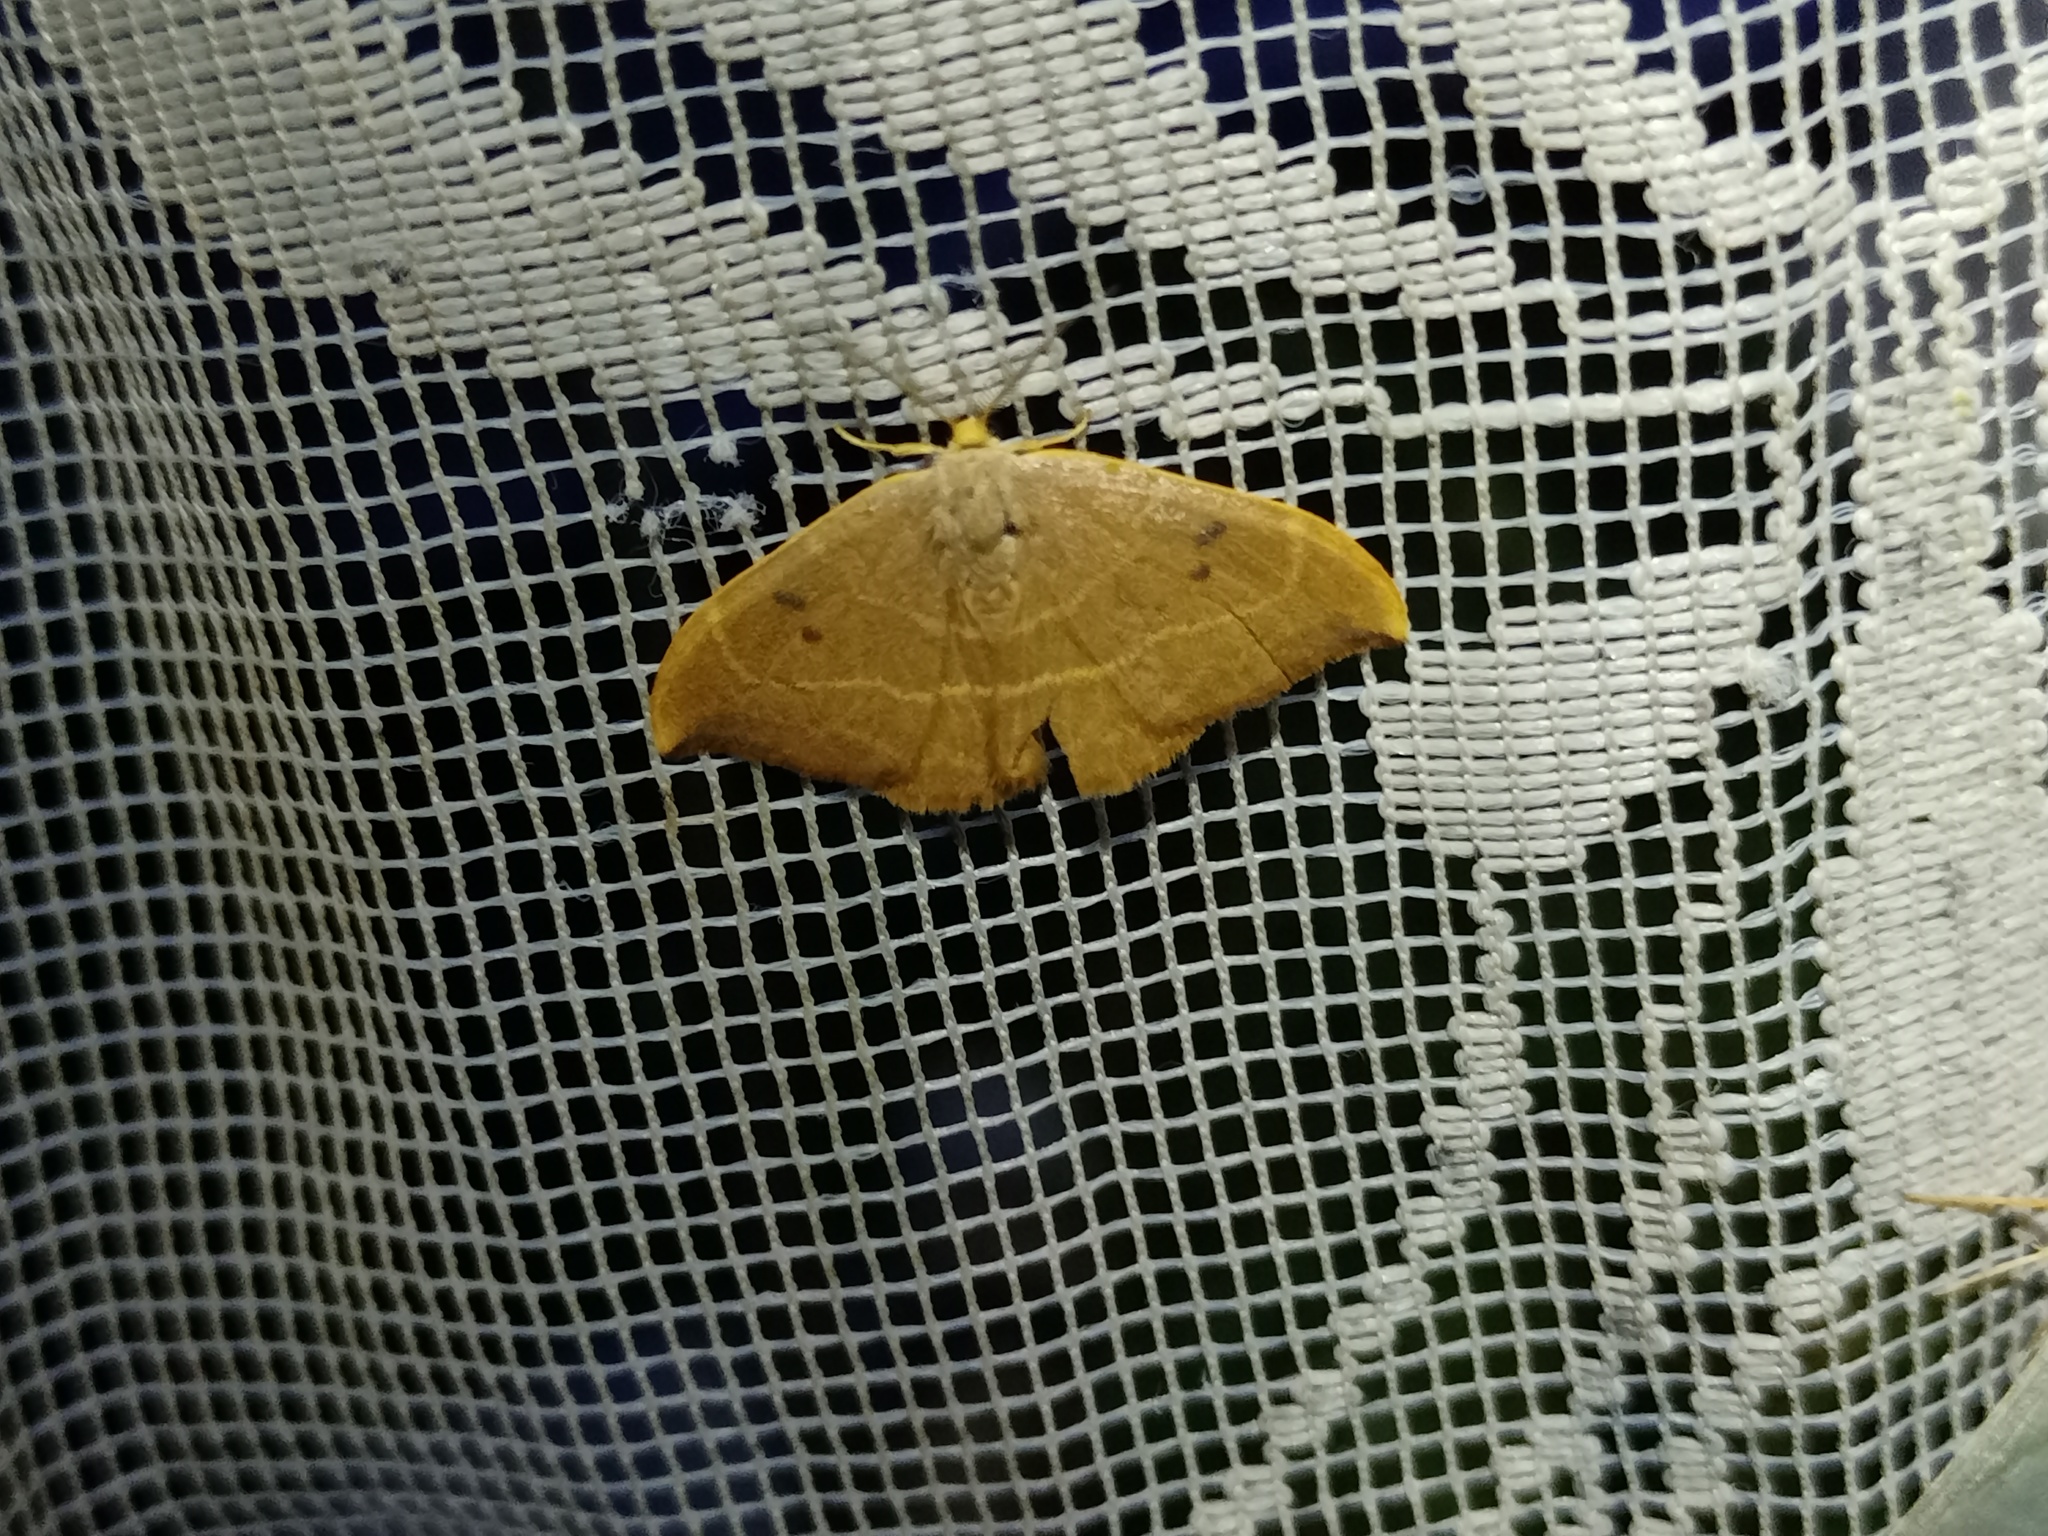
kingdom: Animalia
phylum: Arthropoda
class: Insecta
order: Lepidoptera
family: Drepanidae
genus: Watsonalla
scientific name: Watsonalla binaria
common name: Oak hook-tip
